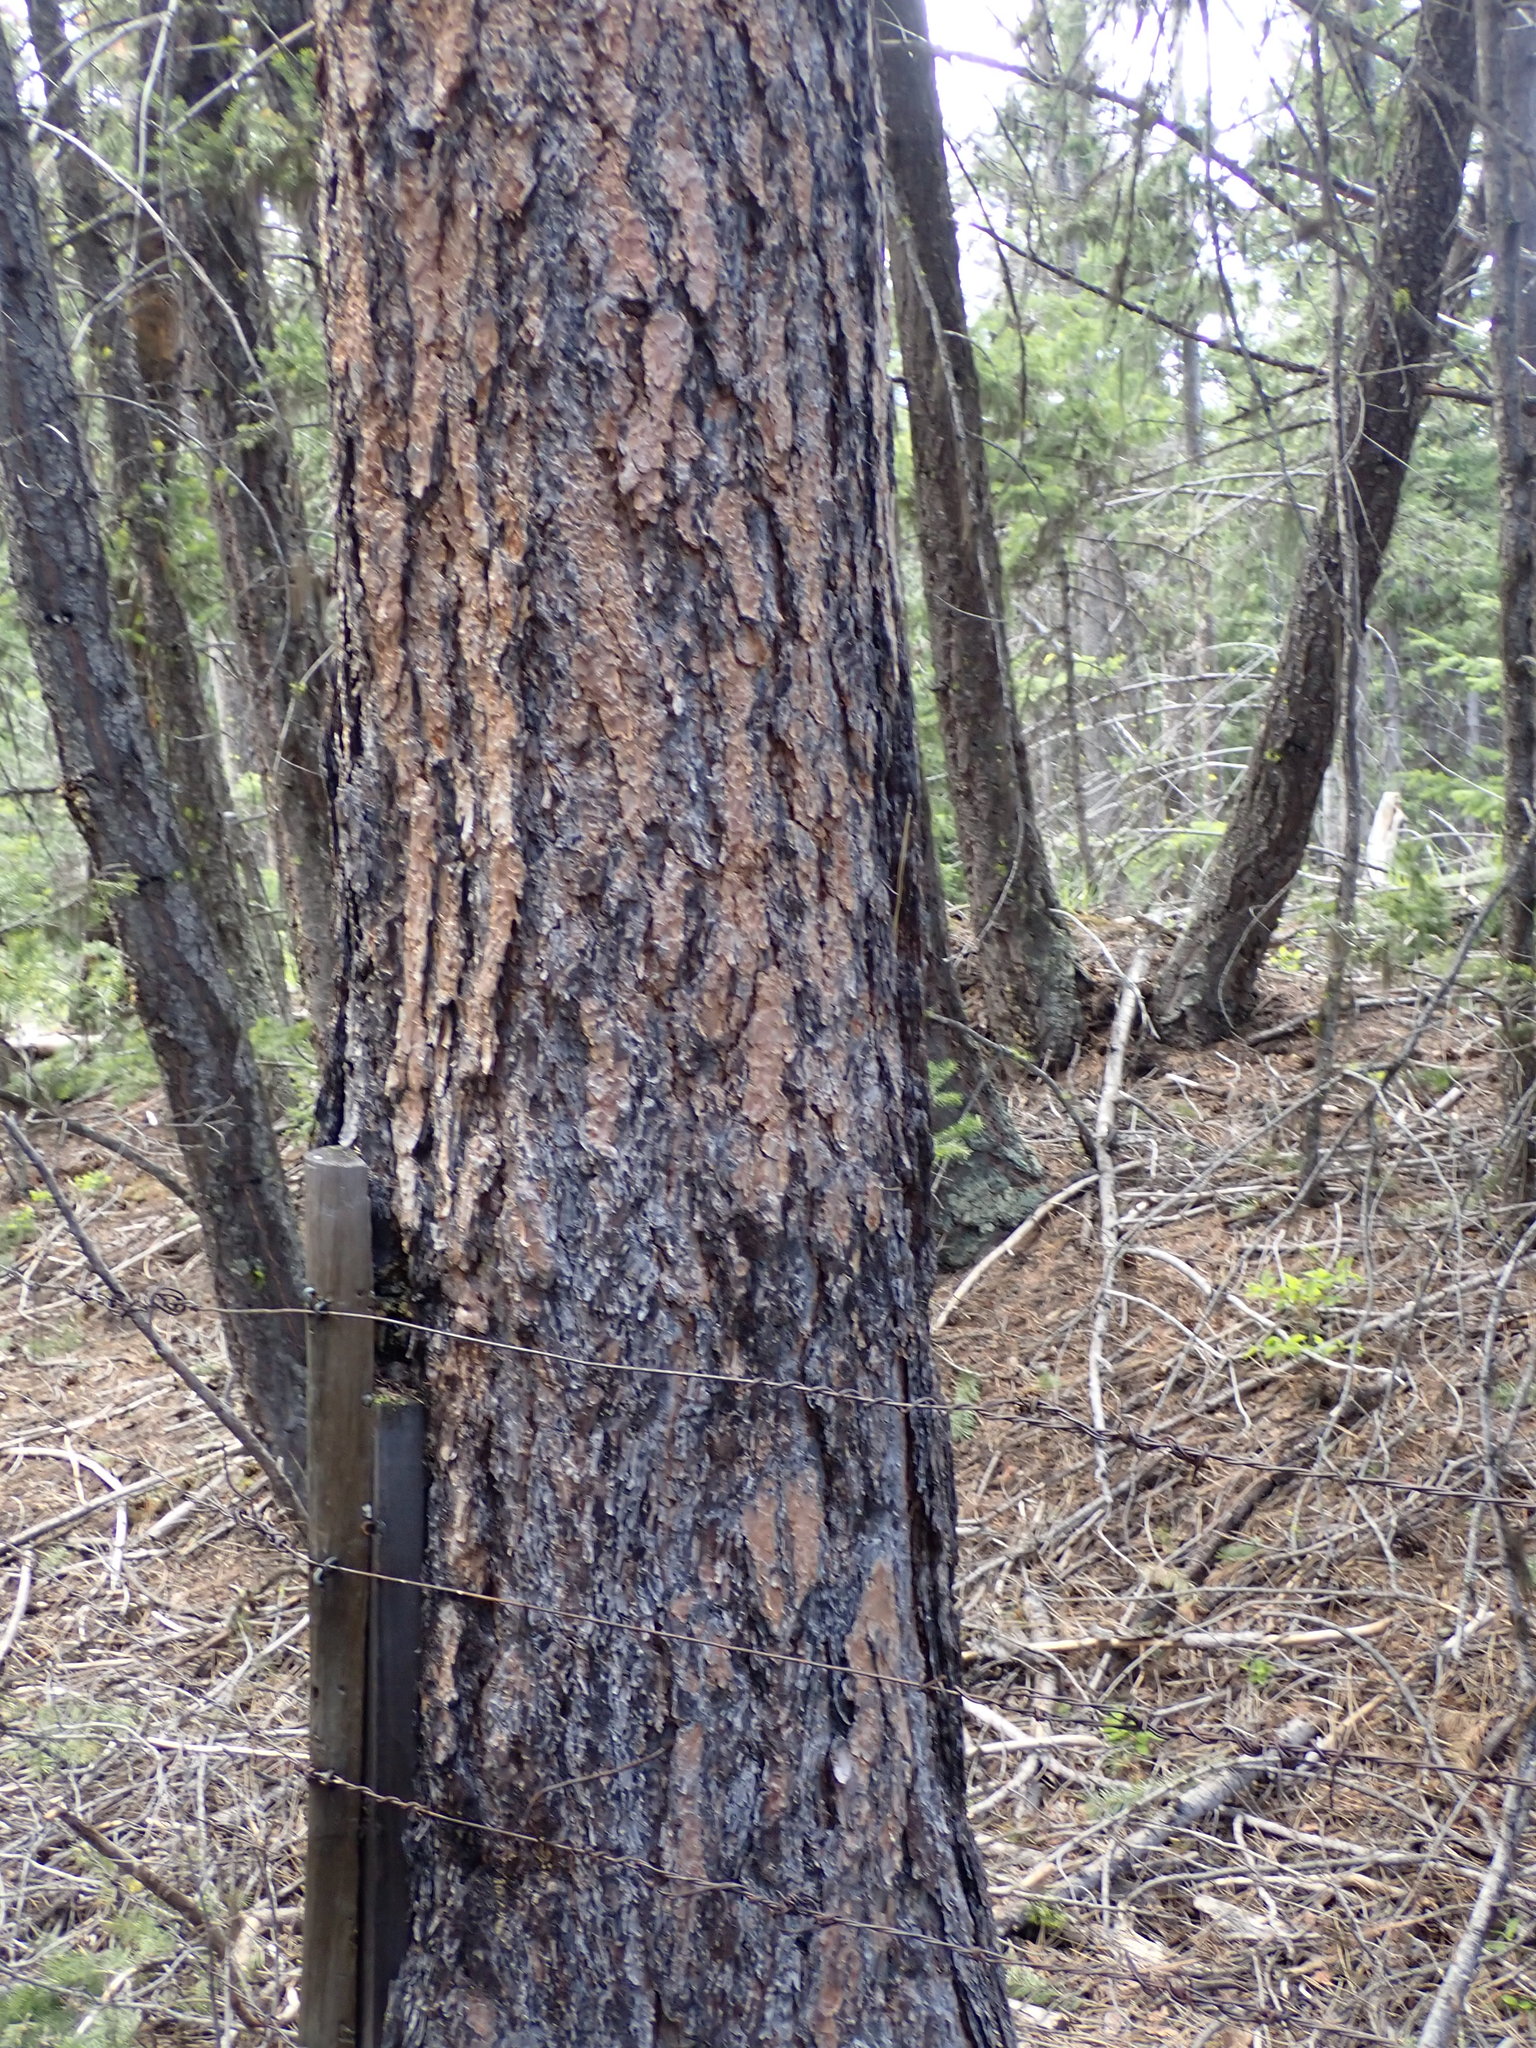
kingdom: Plantae
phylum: Tracheophyta
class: Pinopsida
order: Pinales
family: Pinaceae
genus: Pinus
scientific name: Pinus ponderosa
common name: Western yellow-pine
